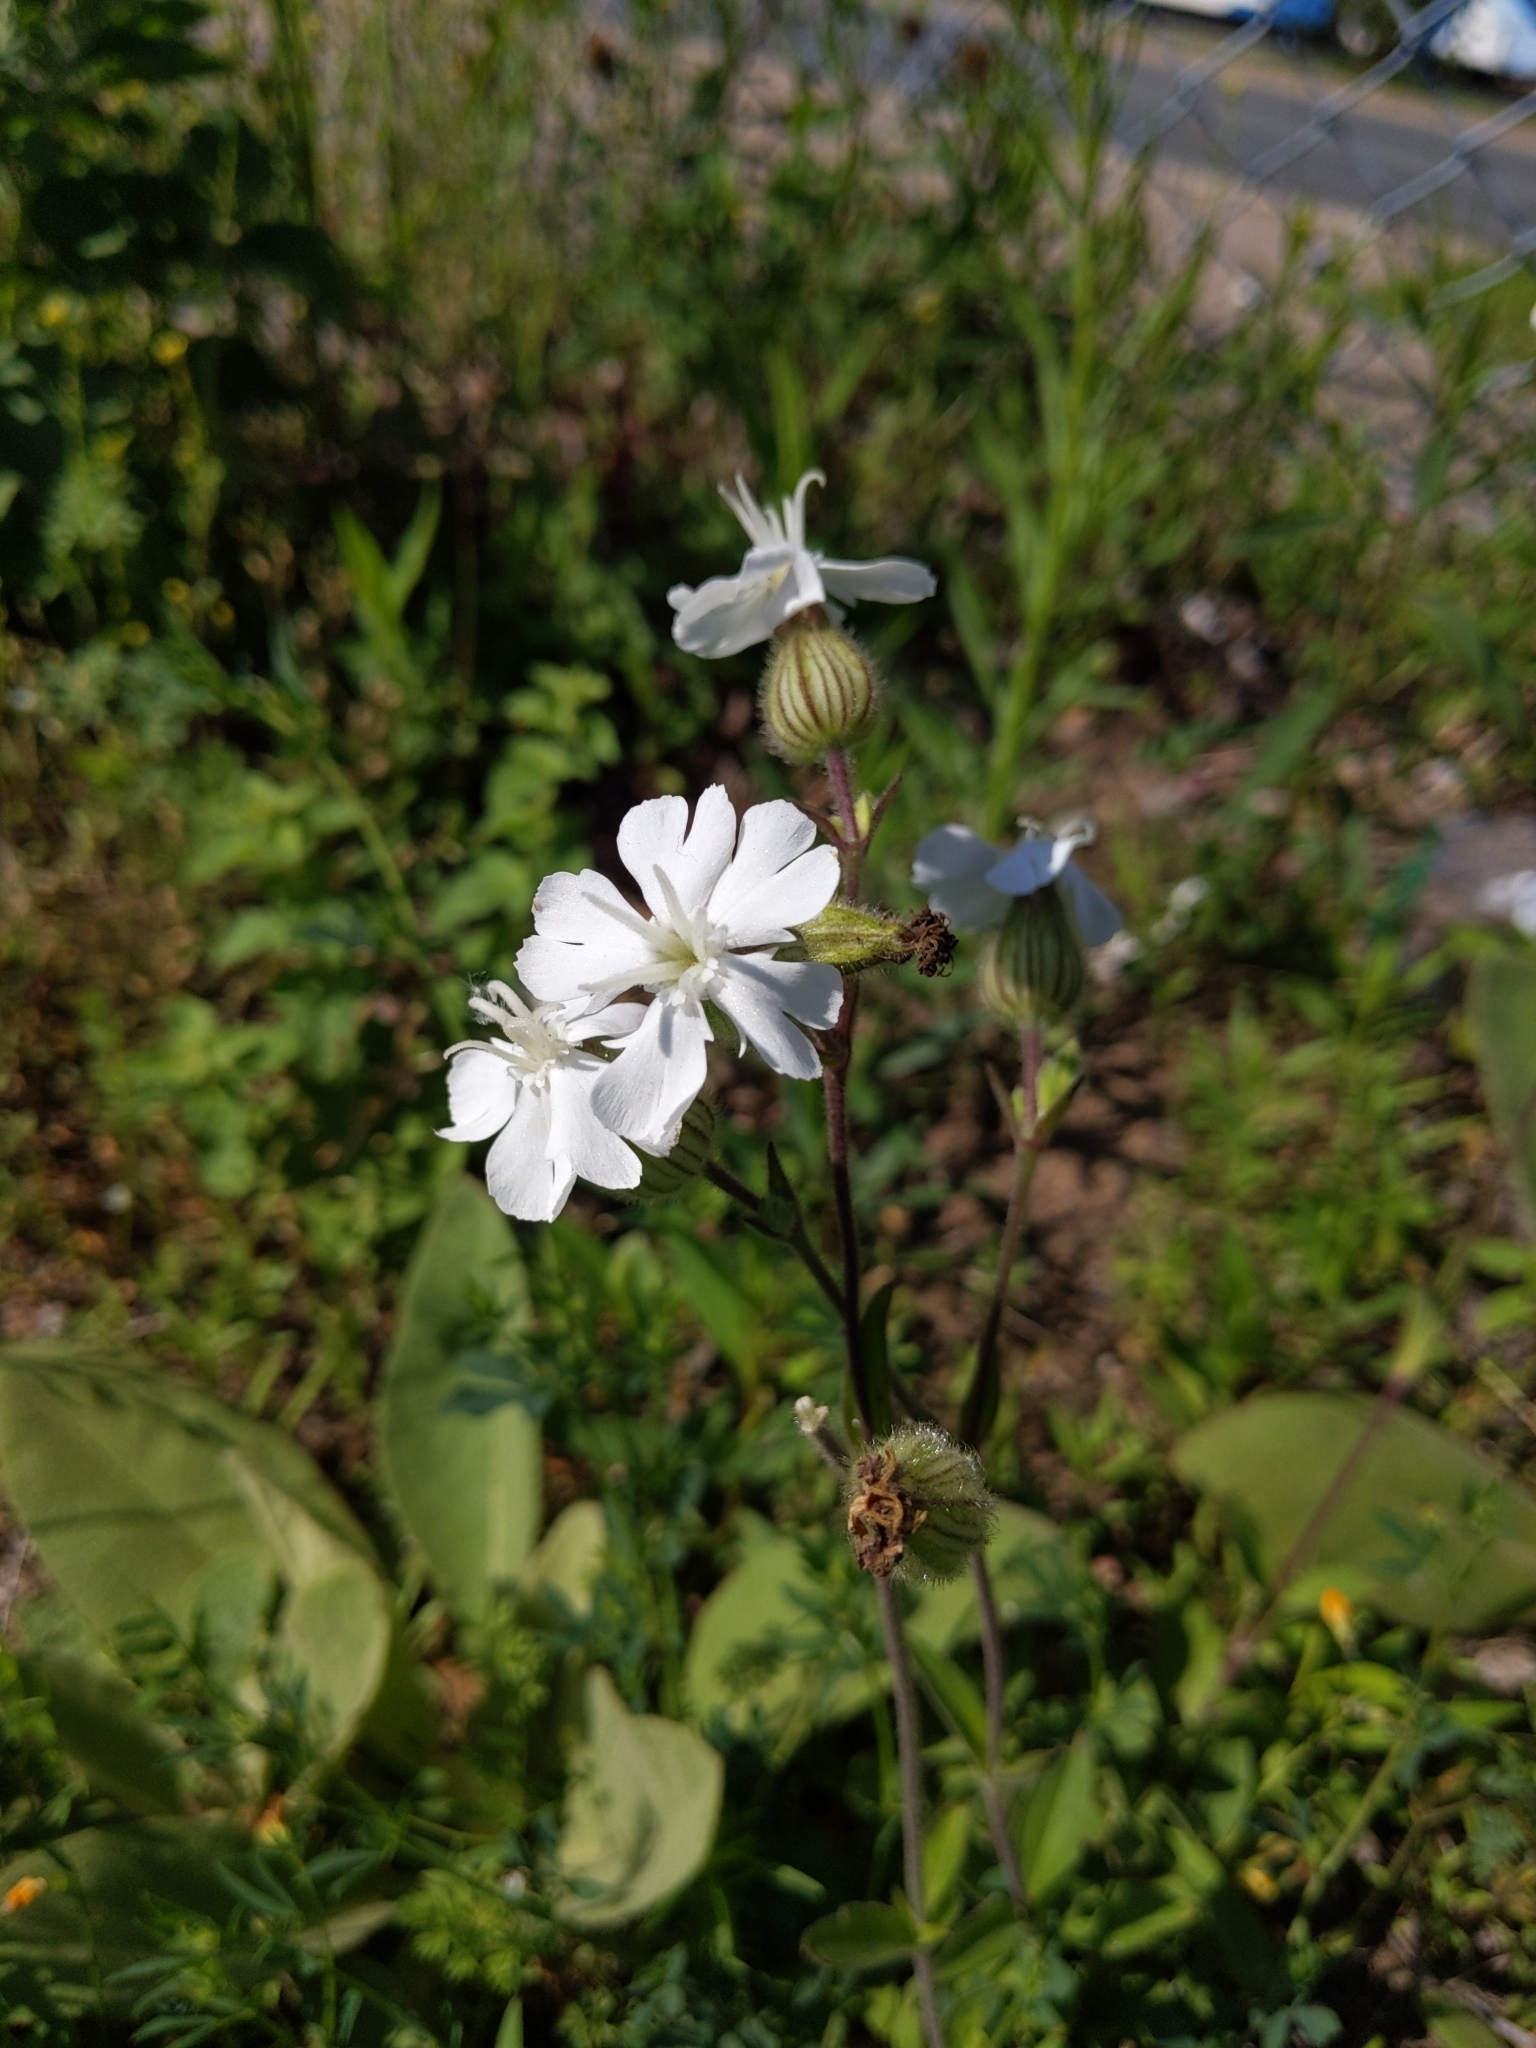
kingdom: Plantae
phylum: Tracheophyta
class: Magnoliopsida
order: Caryophyllales
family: Caryophyllaceae
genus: Silene
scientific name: Silene latifolia
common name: White campion
